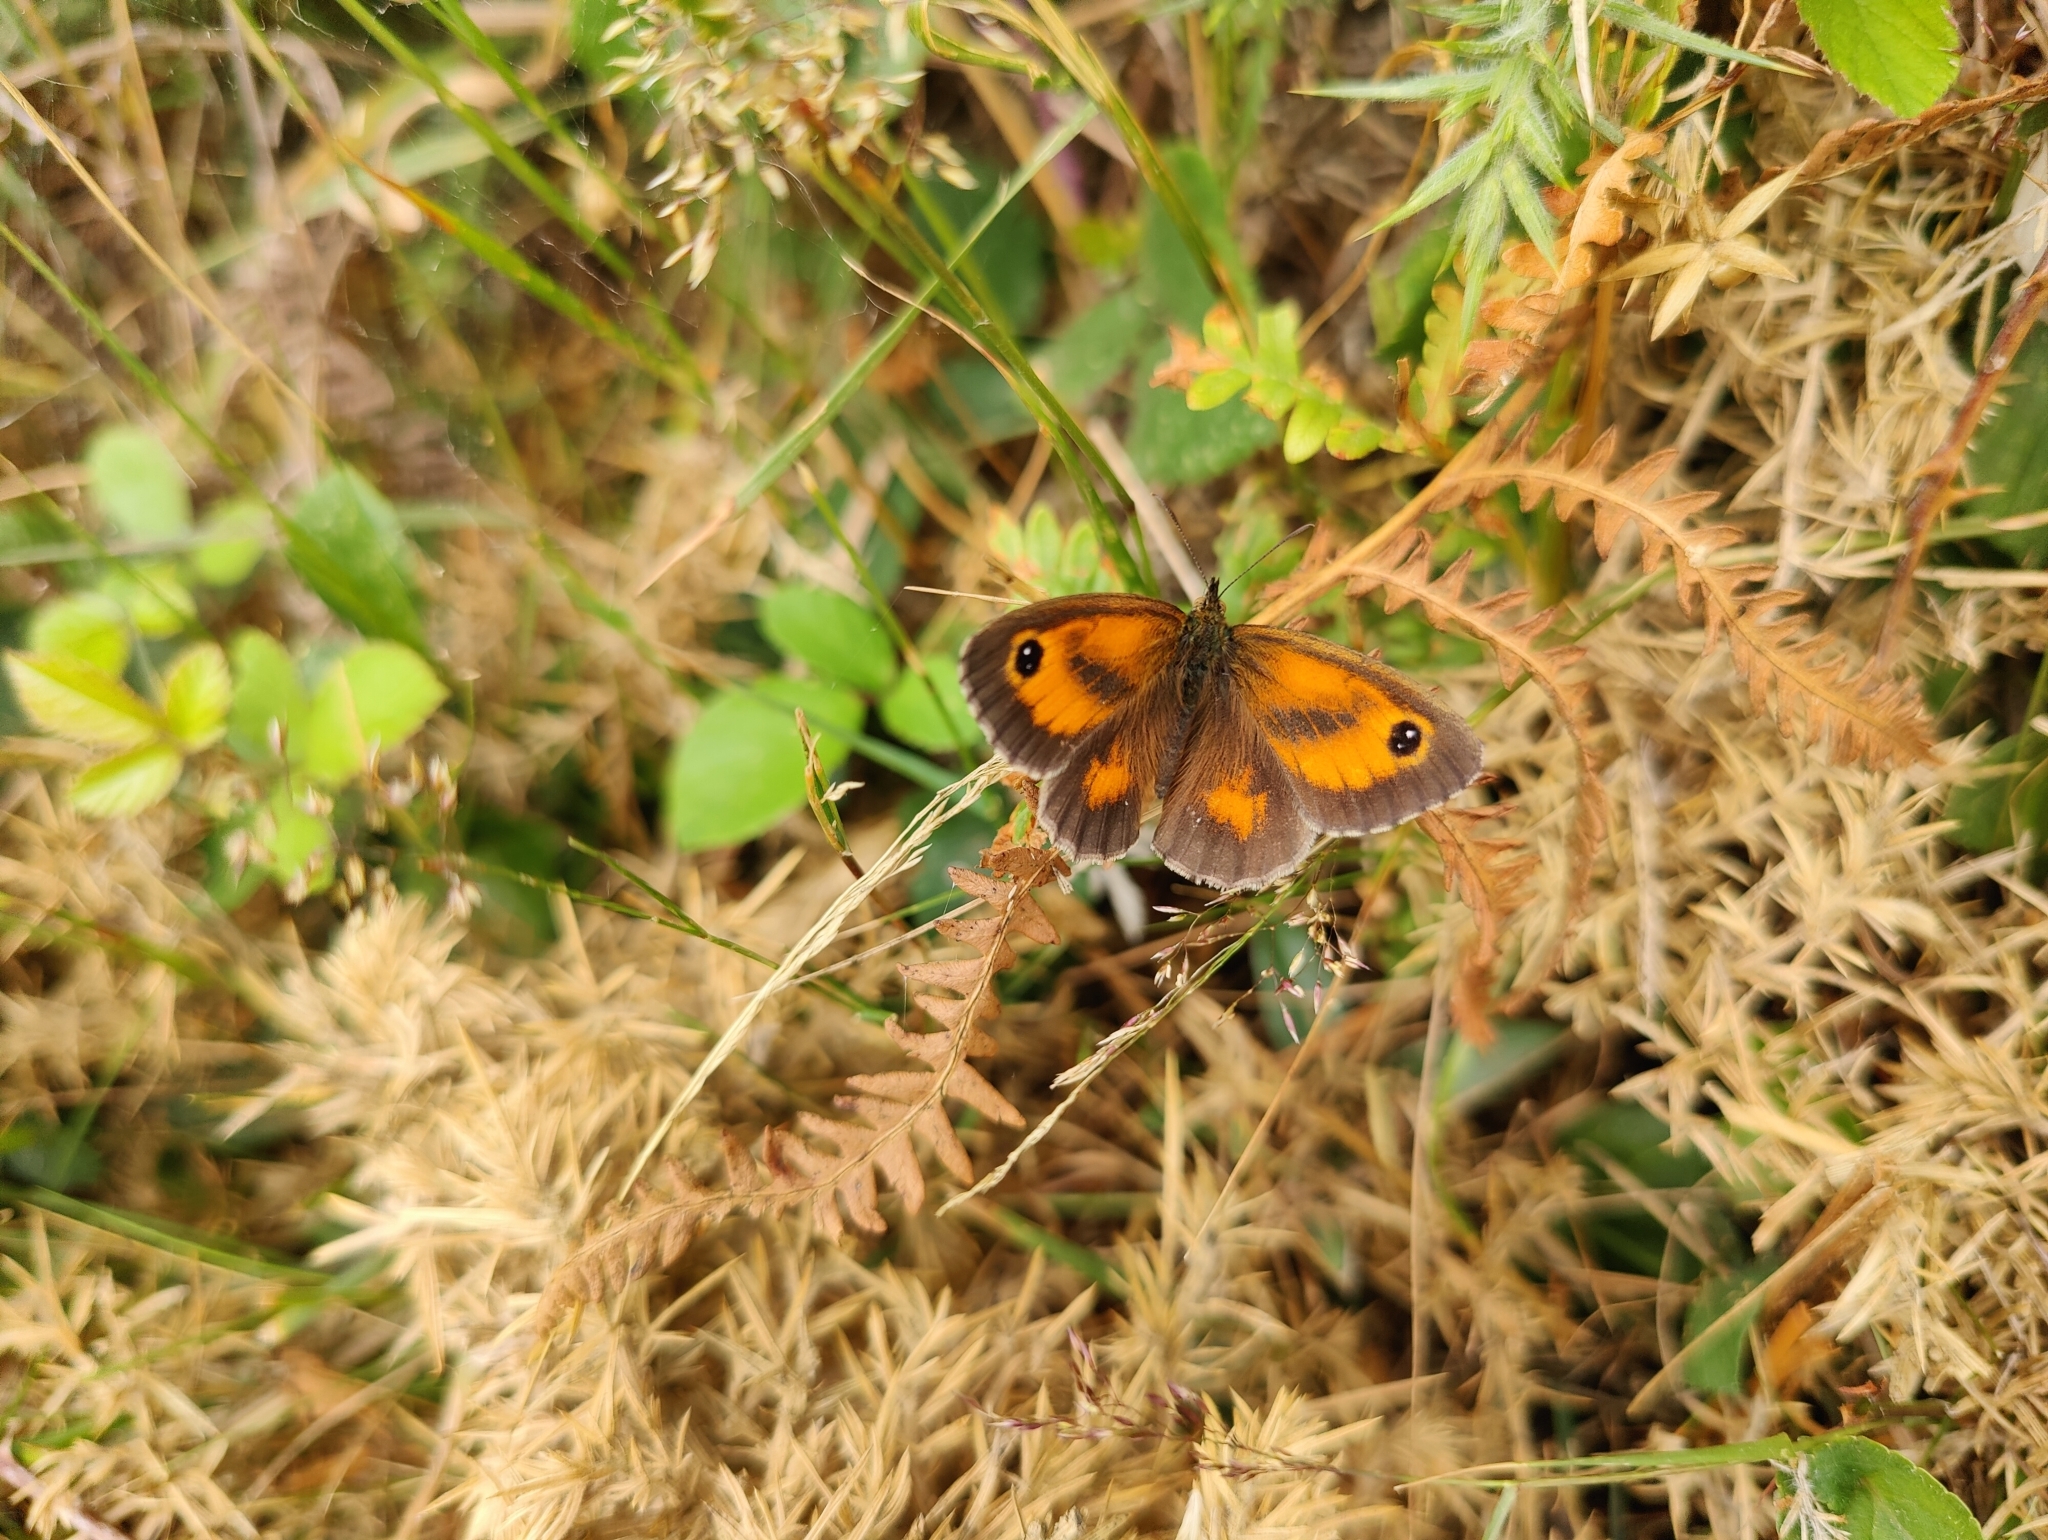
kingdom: Animalia
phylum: Arthropoda
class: Insecta
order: Lepidoptera
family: Nymphalidae
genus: Pyronia
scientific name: Pyronia tithonus
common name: Gatekeeper
